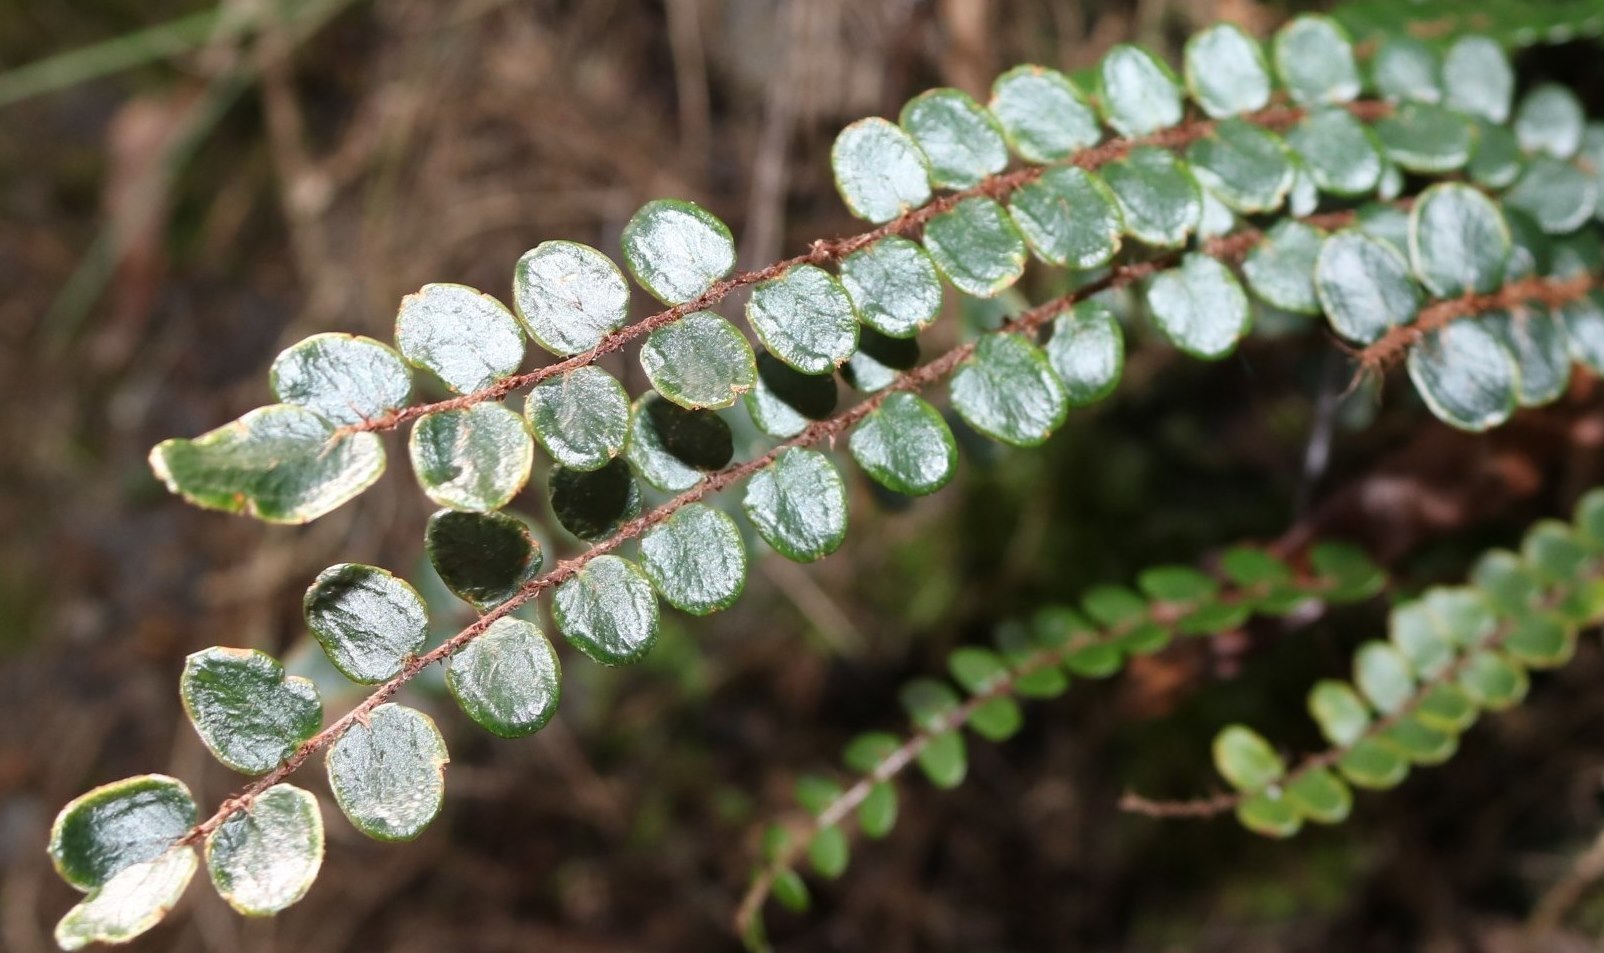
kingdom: Plantae
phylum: Tracheophyta
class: Polypodiopsida
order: Polypodiales
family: Pteridaceae
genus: Pellaea
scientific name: Pellaea rotundifolia
